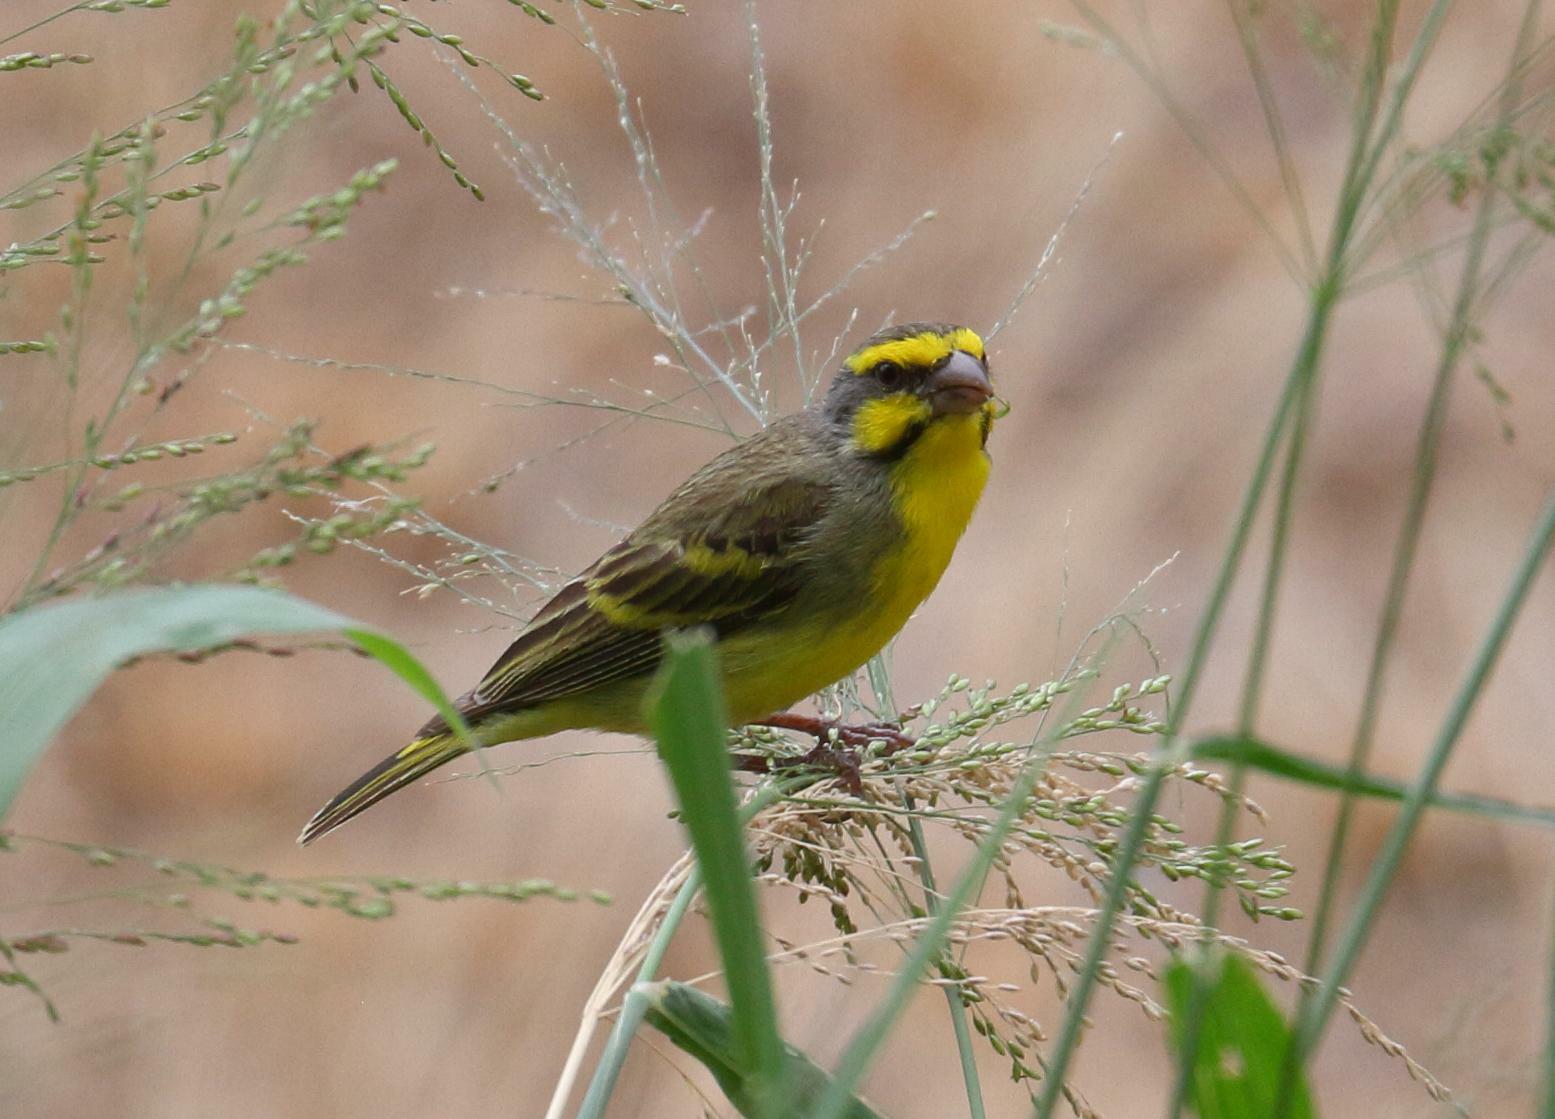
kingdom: Animalia
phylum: Chordata
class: Aves
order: Passeriformes
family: Fringillidae
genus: Crithagra
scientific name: Crithagra mozambica
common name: Yellow-fronted canary
